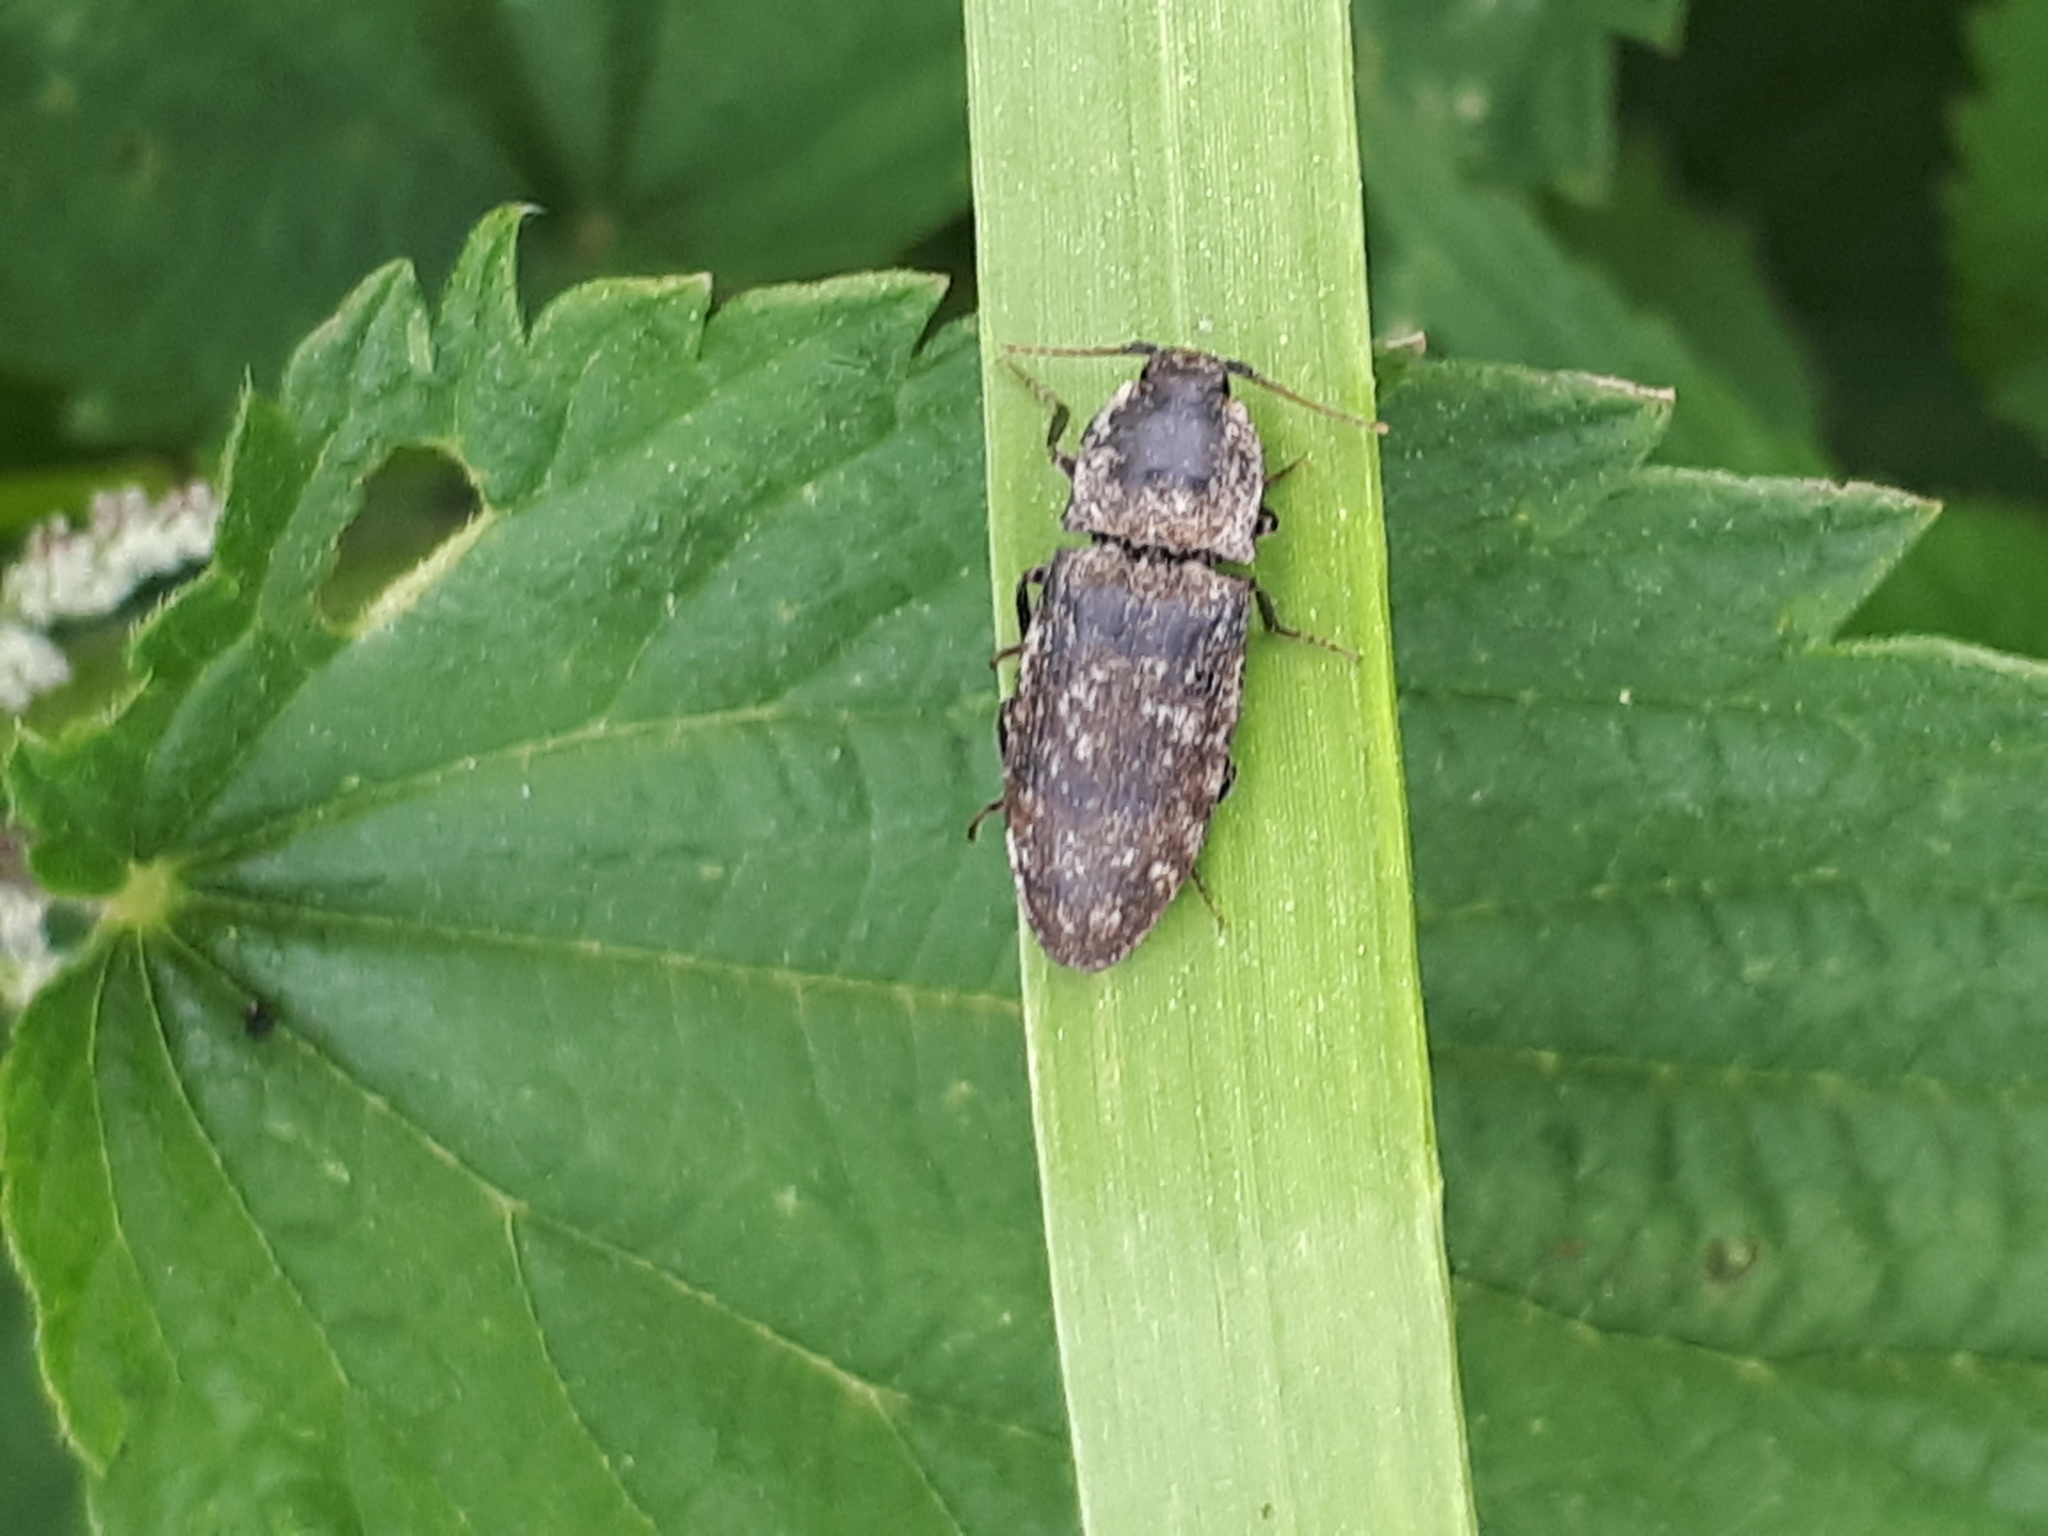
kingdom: Animalia
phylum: Arthropoda
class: Insecta
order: Coleoptera
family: Elateridae
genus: Agrypnus
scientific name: Agrypnus murinus
